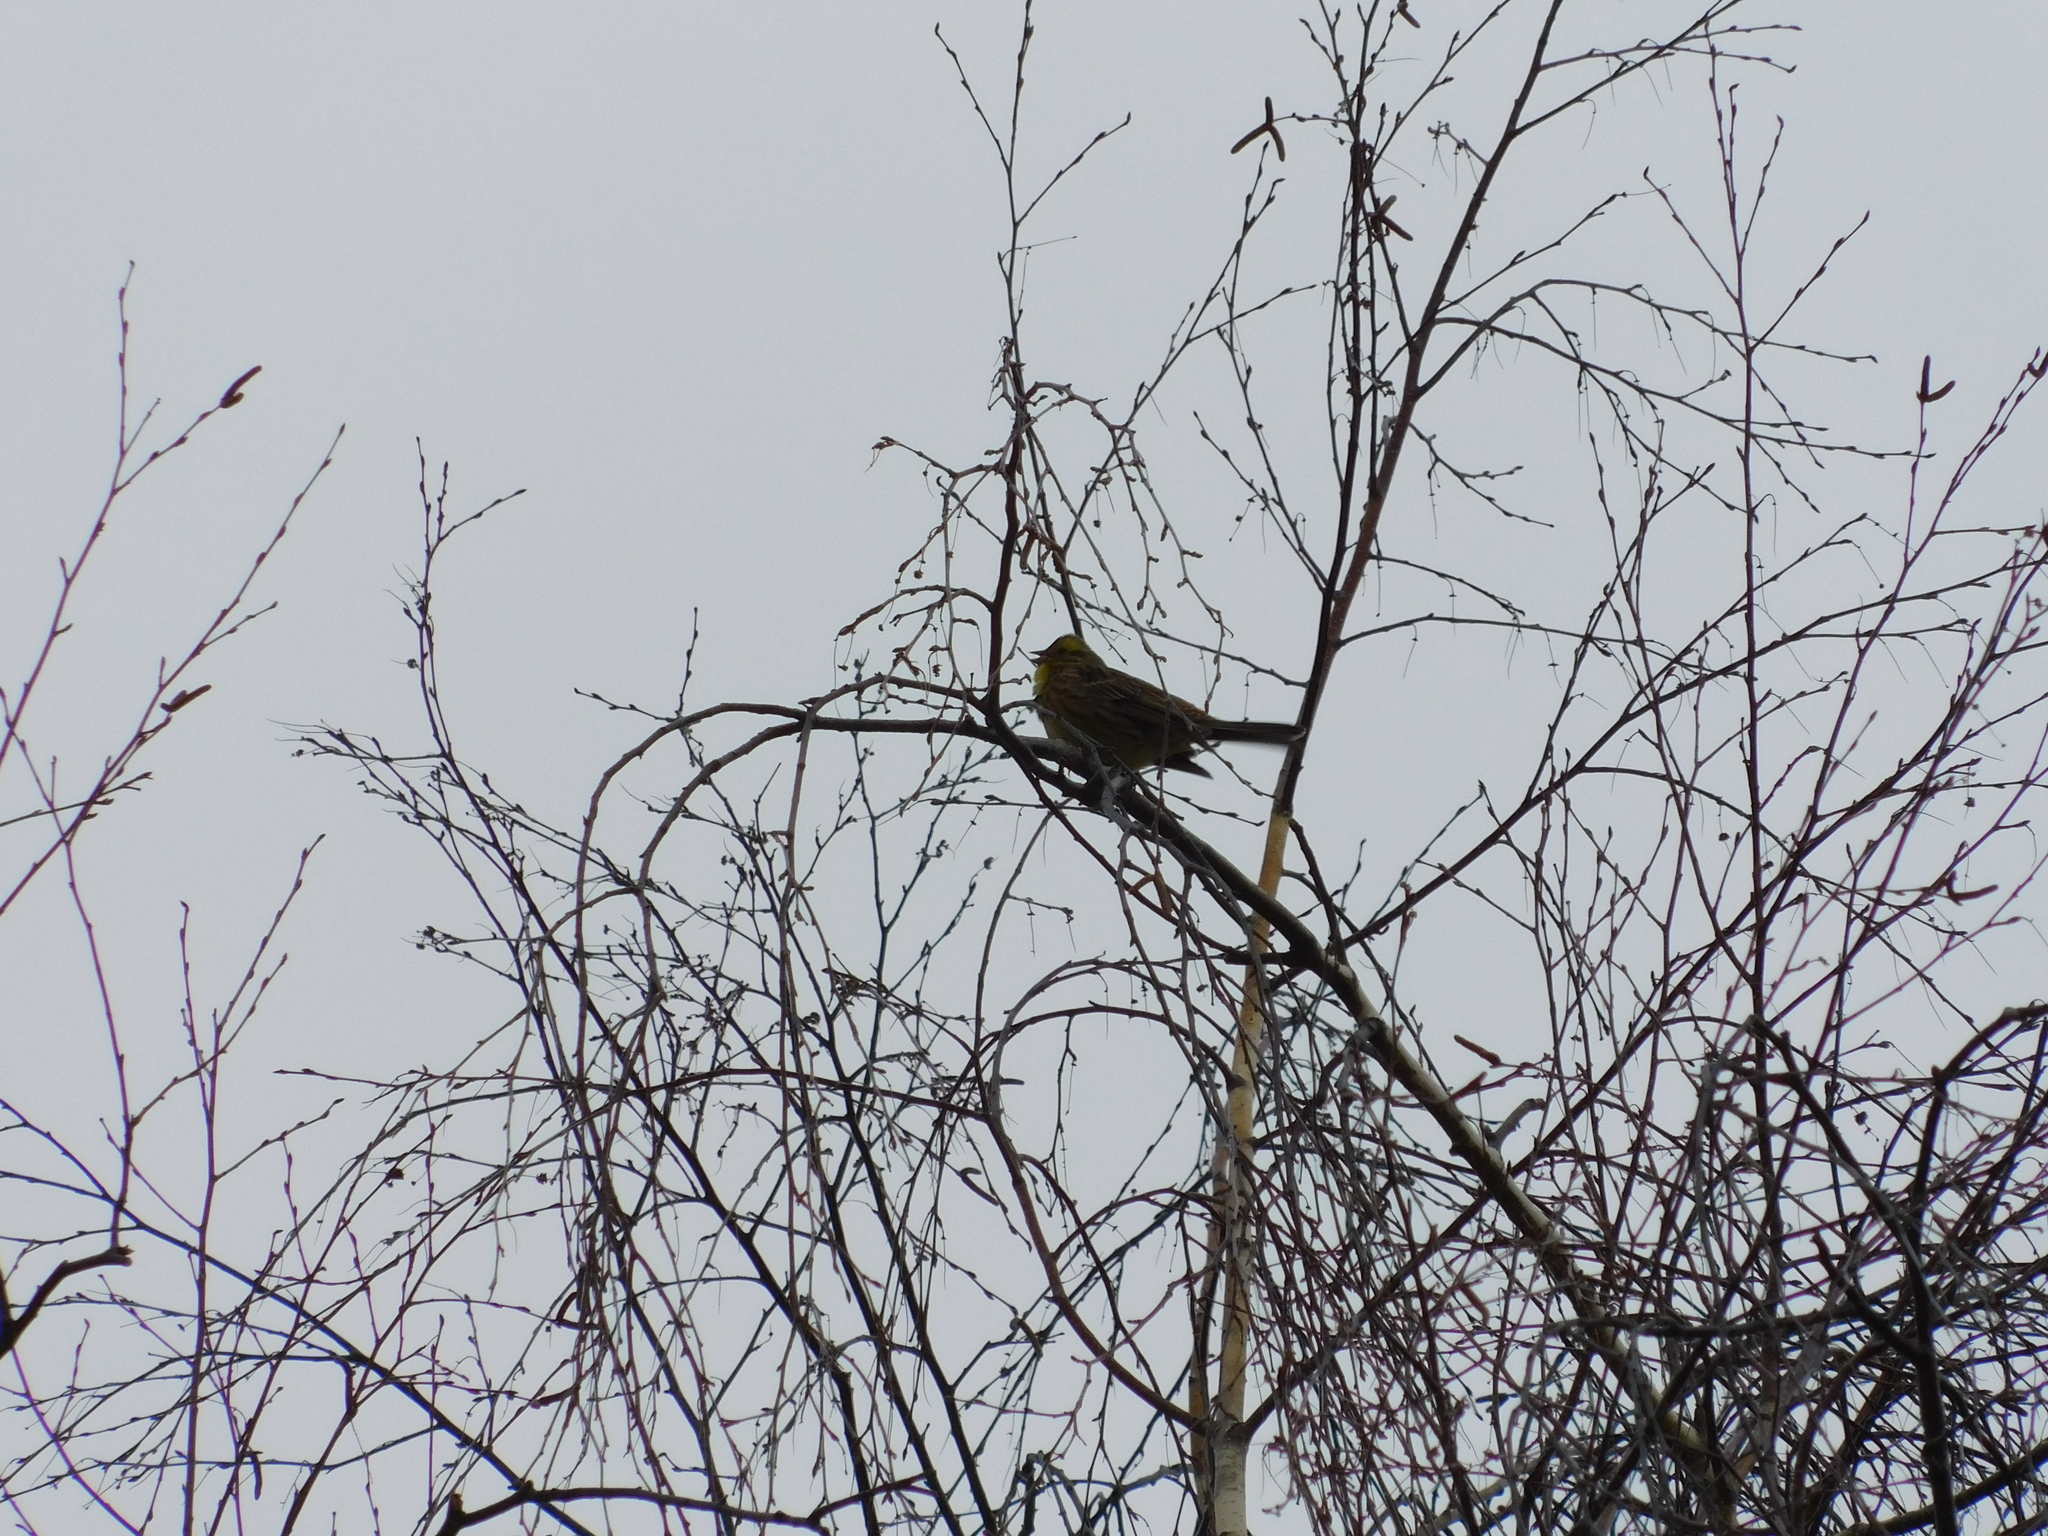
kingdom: Animalia
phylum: Chordata
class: Aves
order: Passeriformes
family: Emberizidae
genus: Emberiza
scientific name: Emberiza citrinella
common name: Yellowhammer
